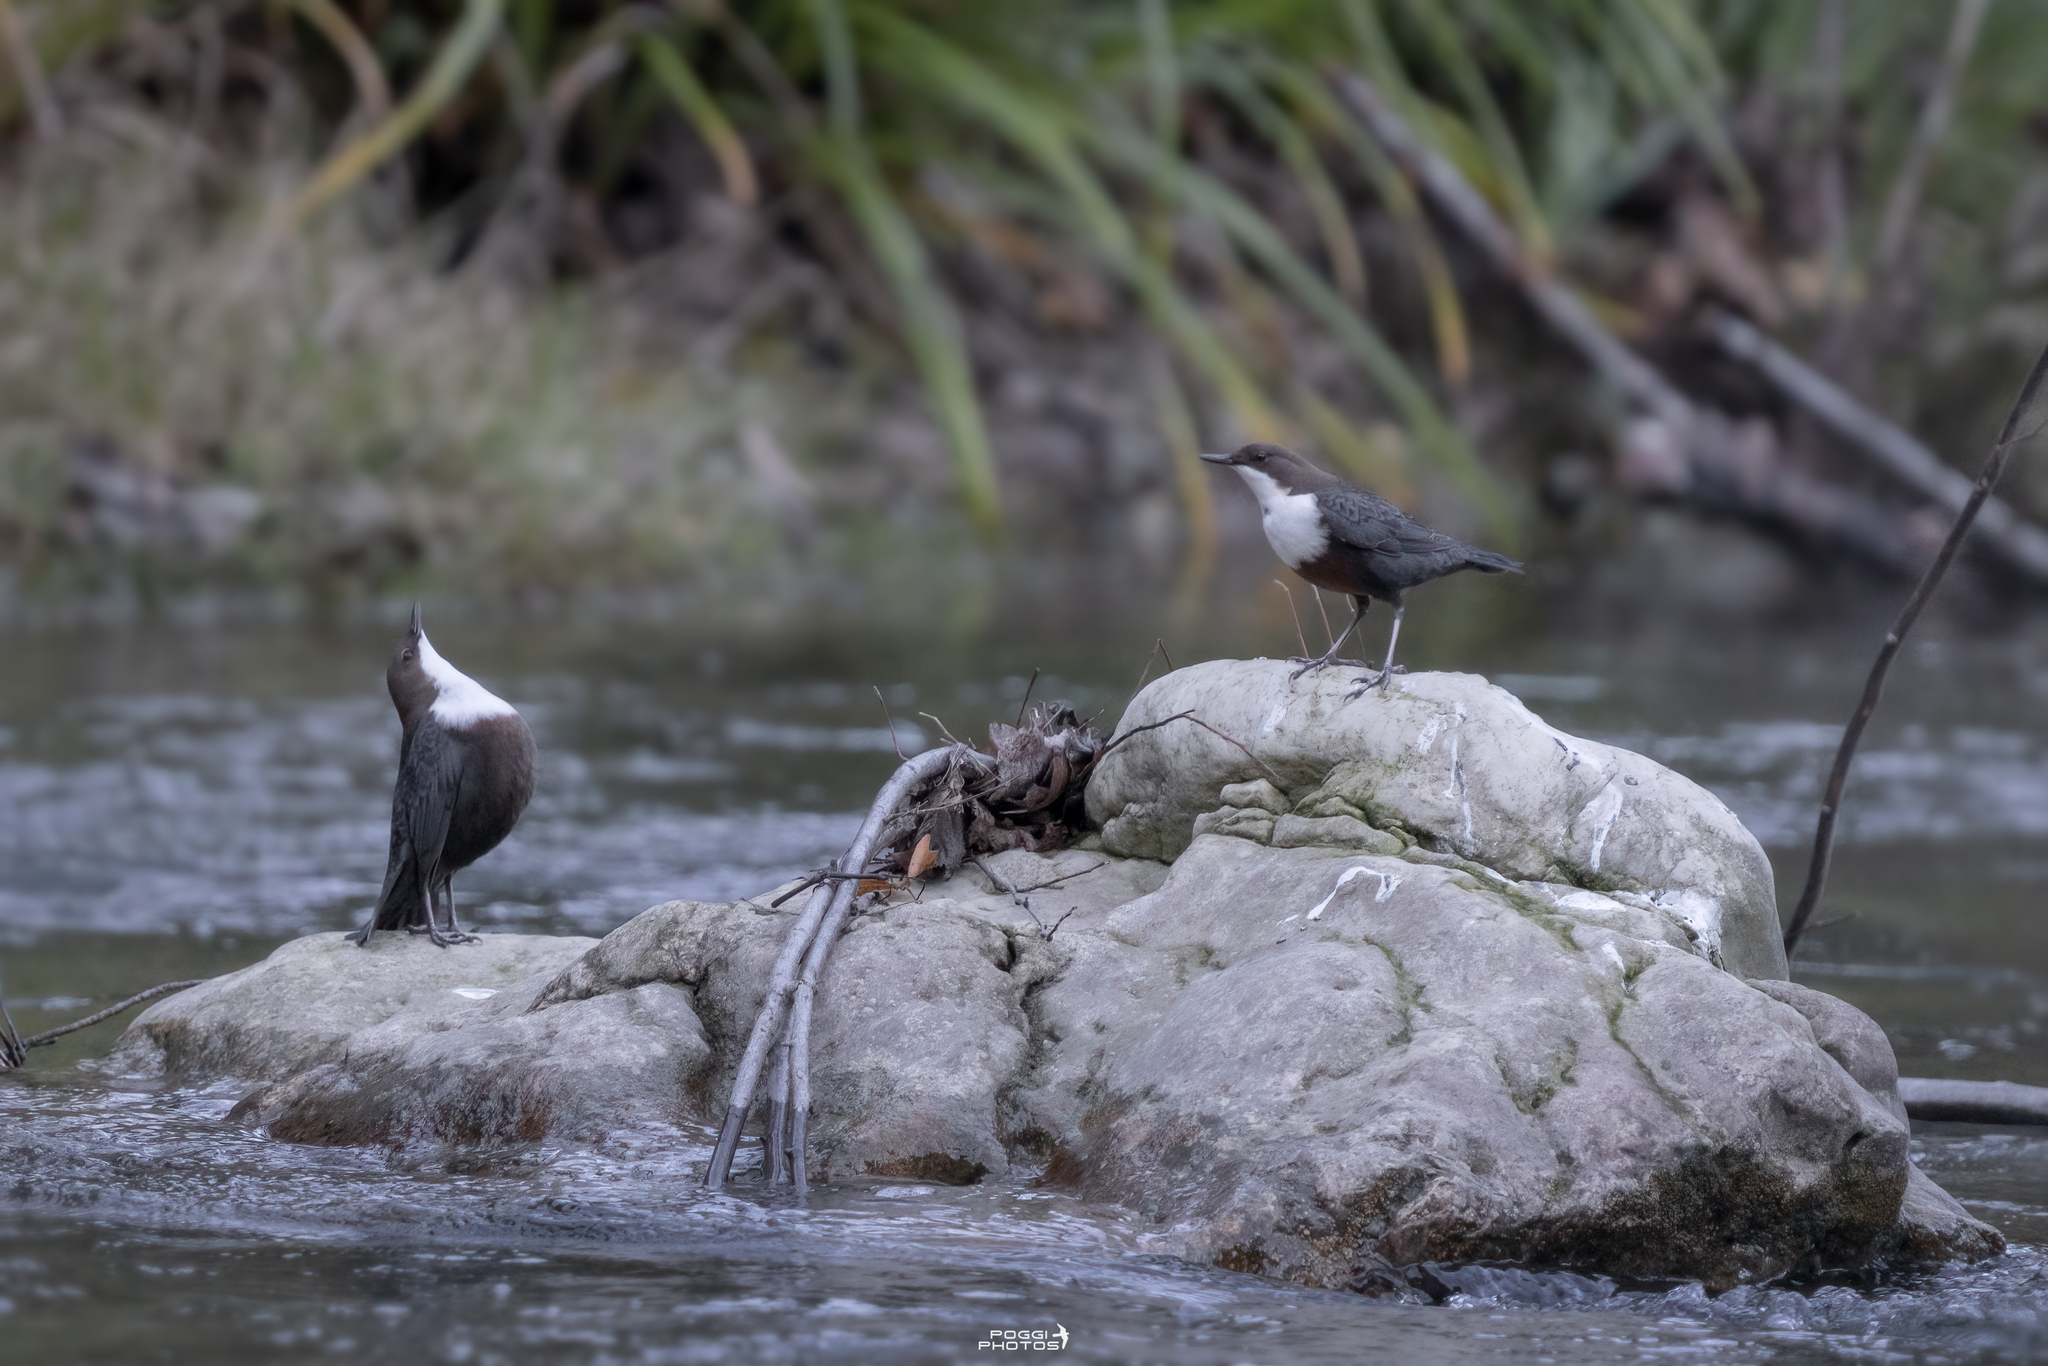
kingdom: Animalia
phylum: Chordata
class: Aves
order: Passeriformes
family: Cinclidae
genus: Cinclus
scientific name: Cinclus cinclus
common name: White-throated dipper
